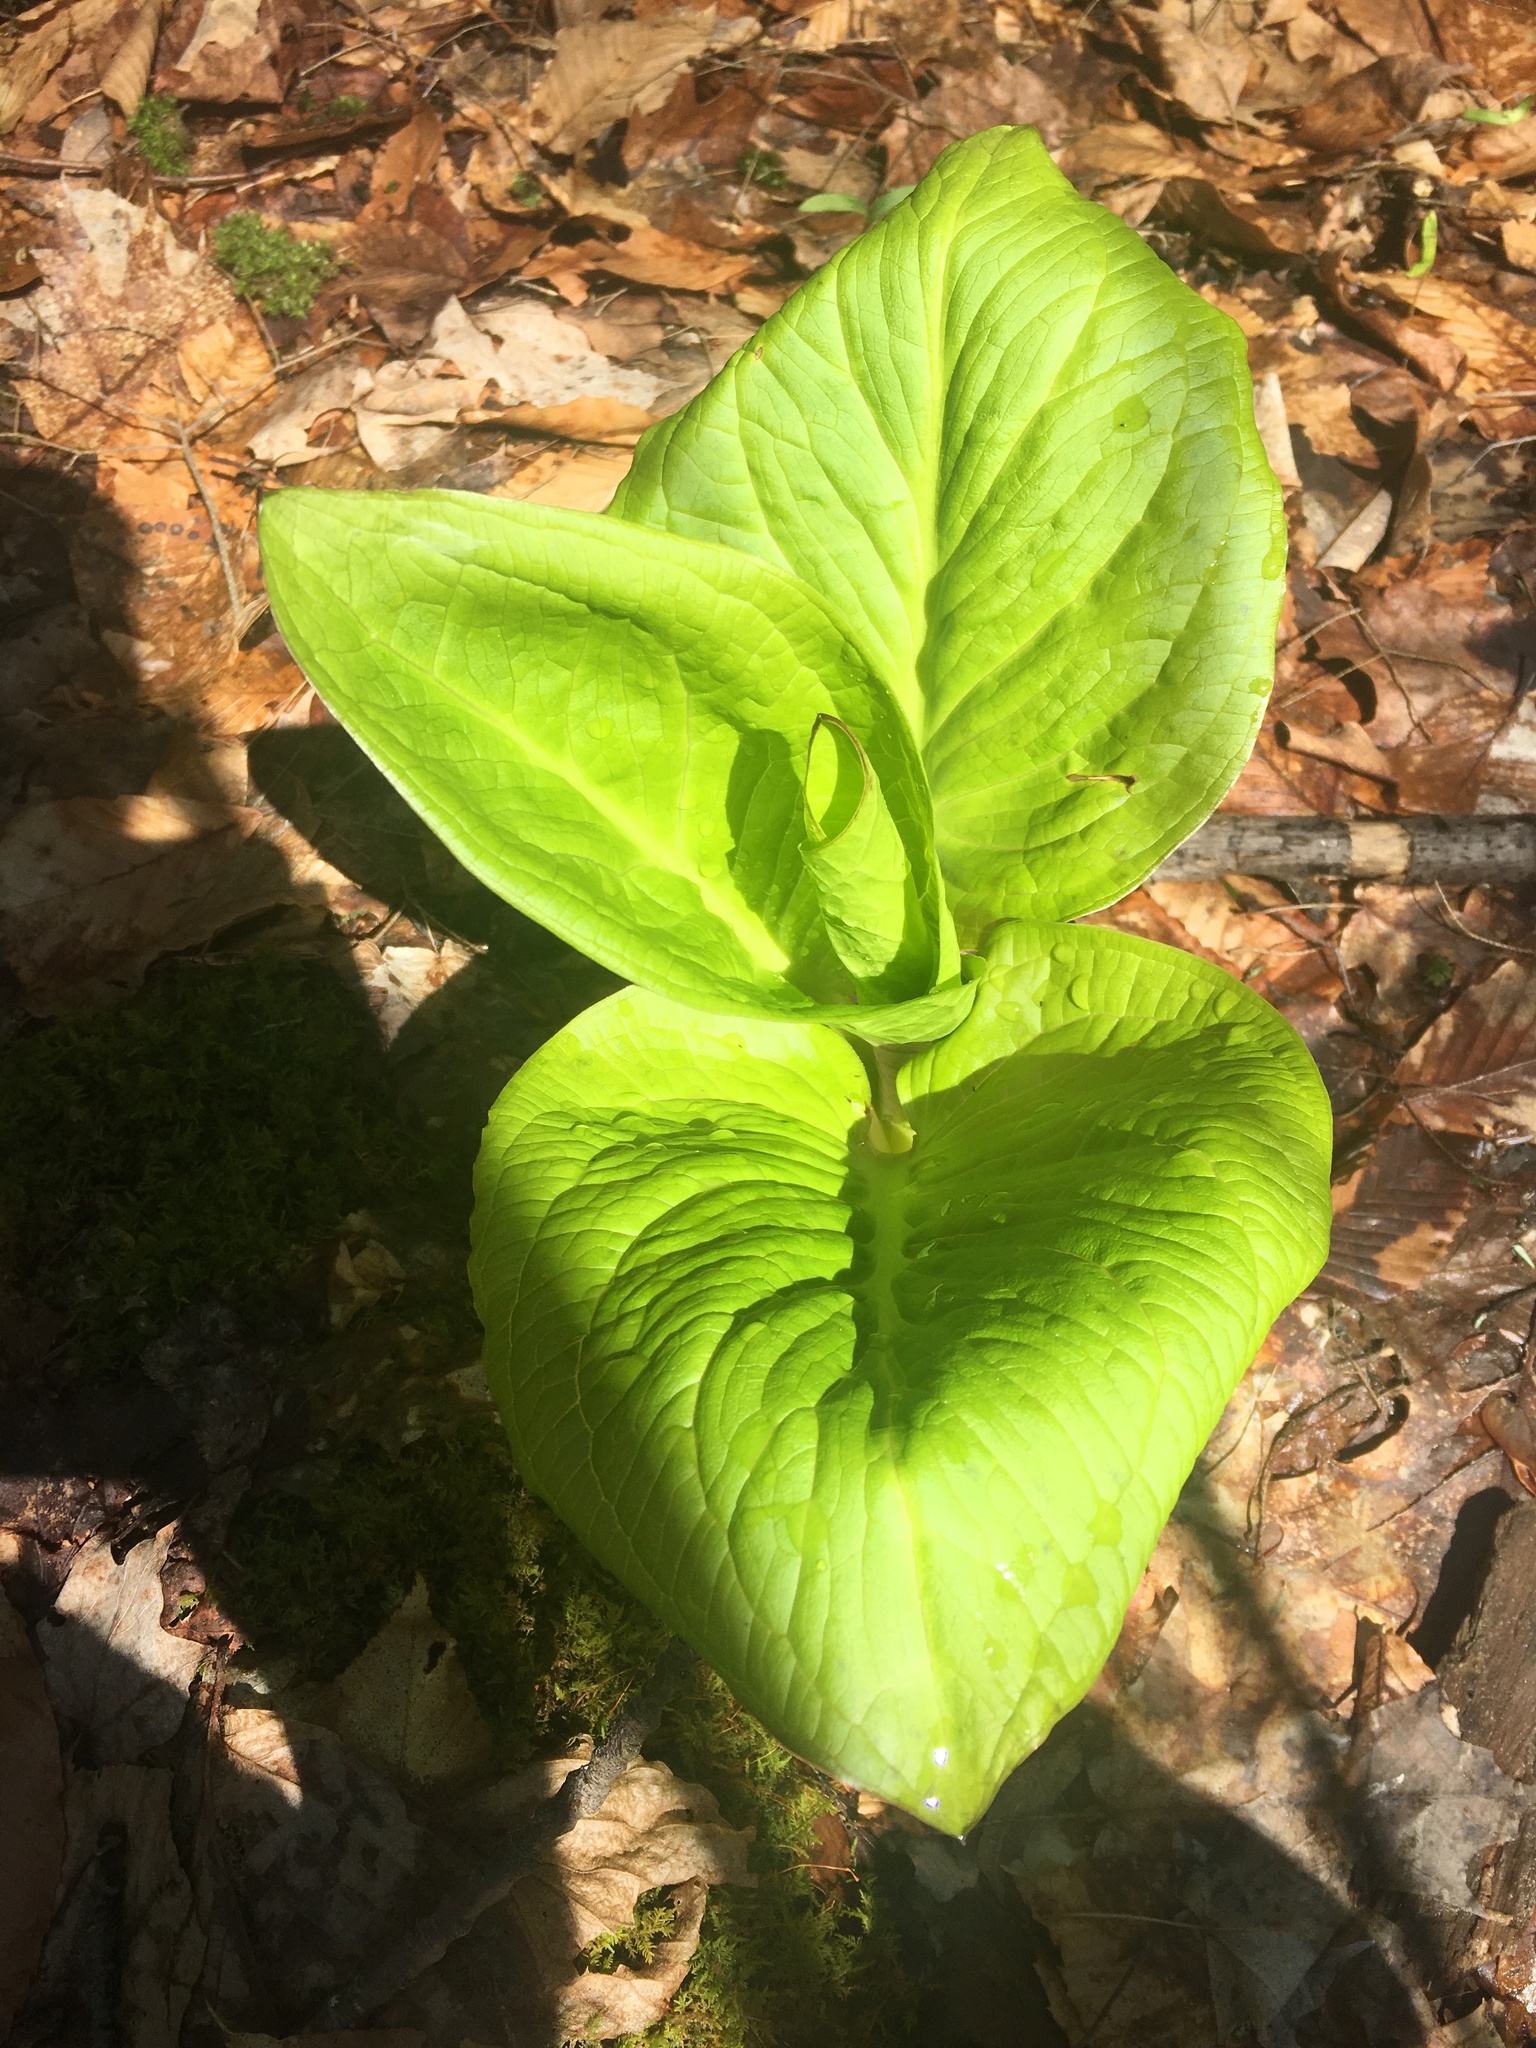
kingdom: Plantae
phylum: Tracheophyta
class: Liliopsida
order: Alismatales
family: Araceae
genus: Symplocarpus
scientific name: Symplocarpus foetidus
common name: Eastern skunk cabbage
